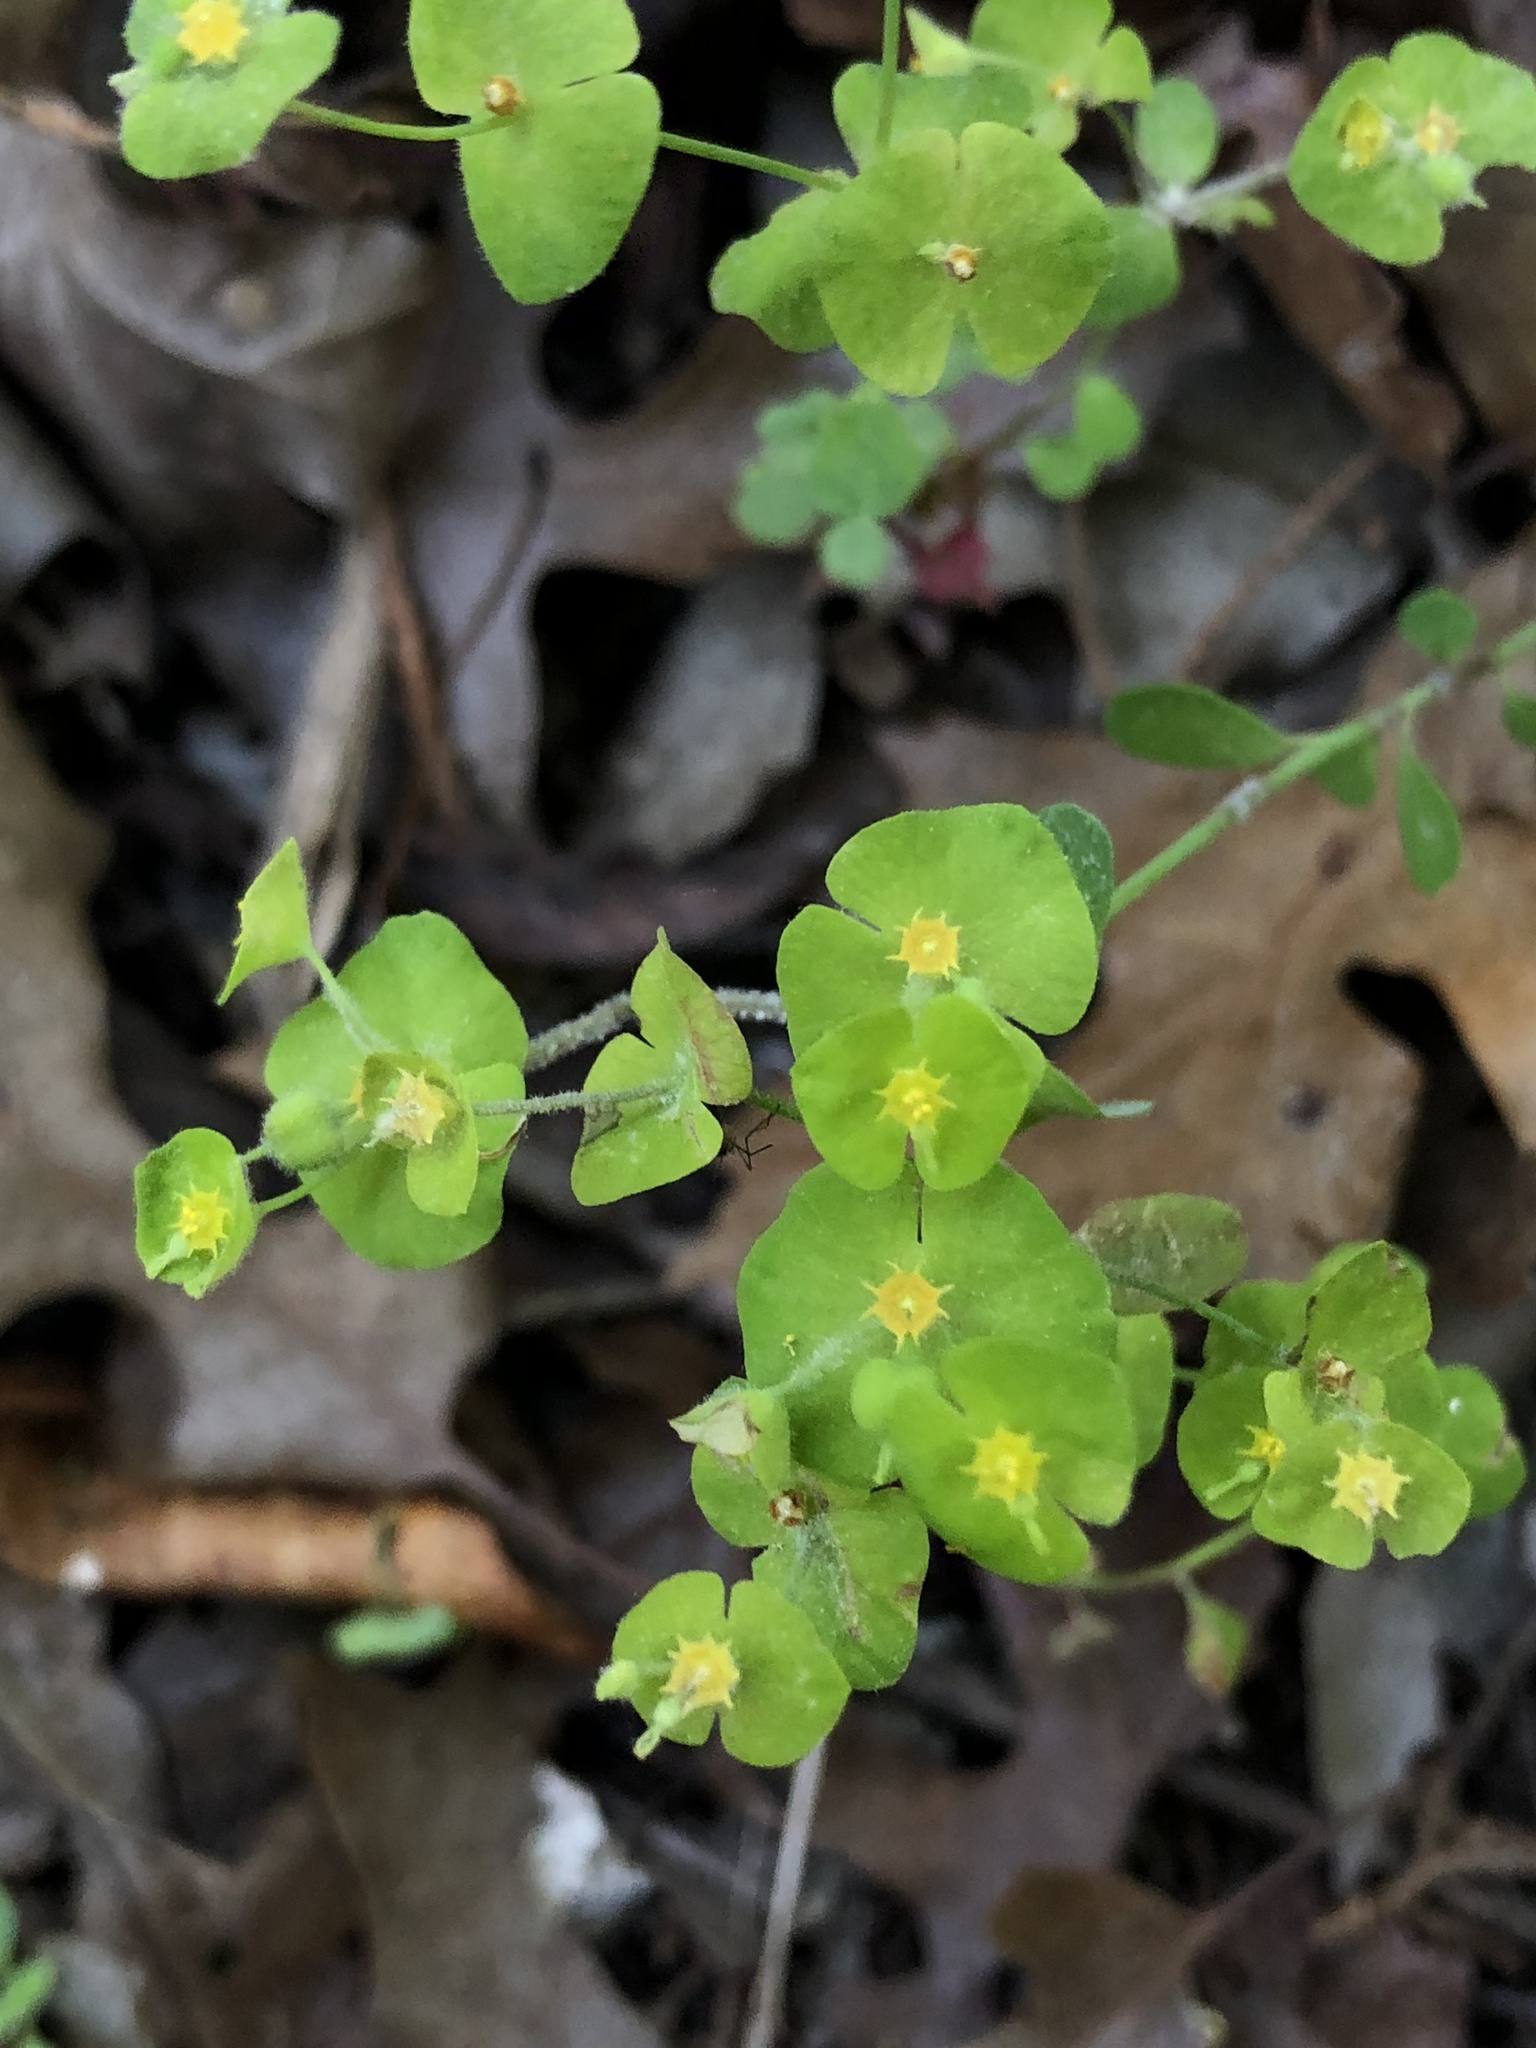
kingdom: Plantae
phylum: Tracheophyta
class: Magnoliopsida
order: Malpighiales
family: Euphorbiaceae
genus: Euphorbia
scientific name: Euphorbia roemeriana
